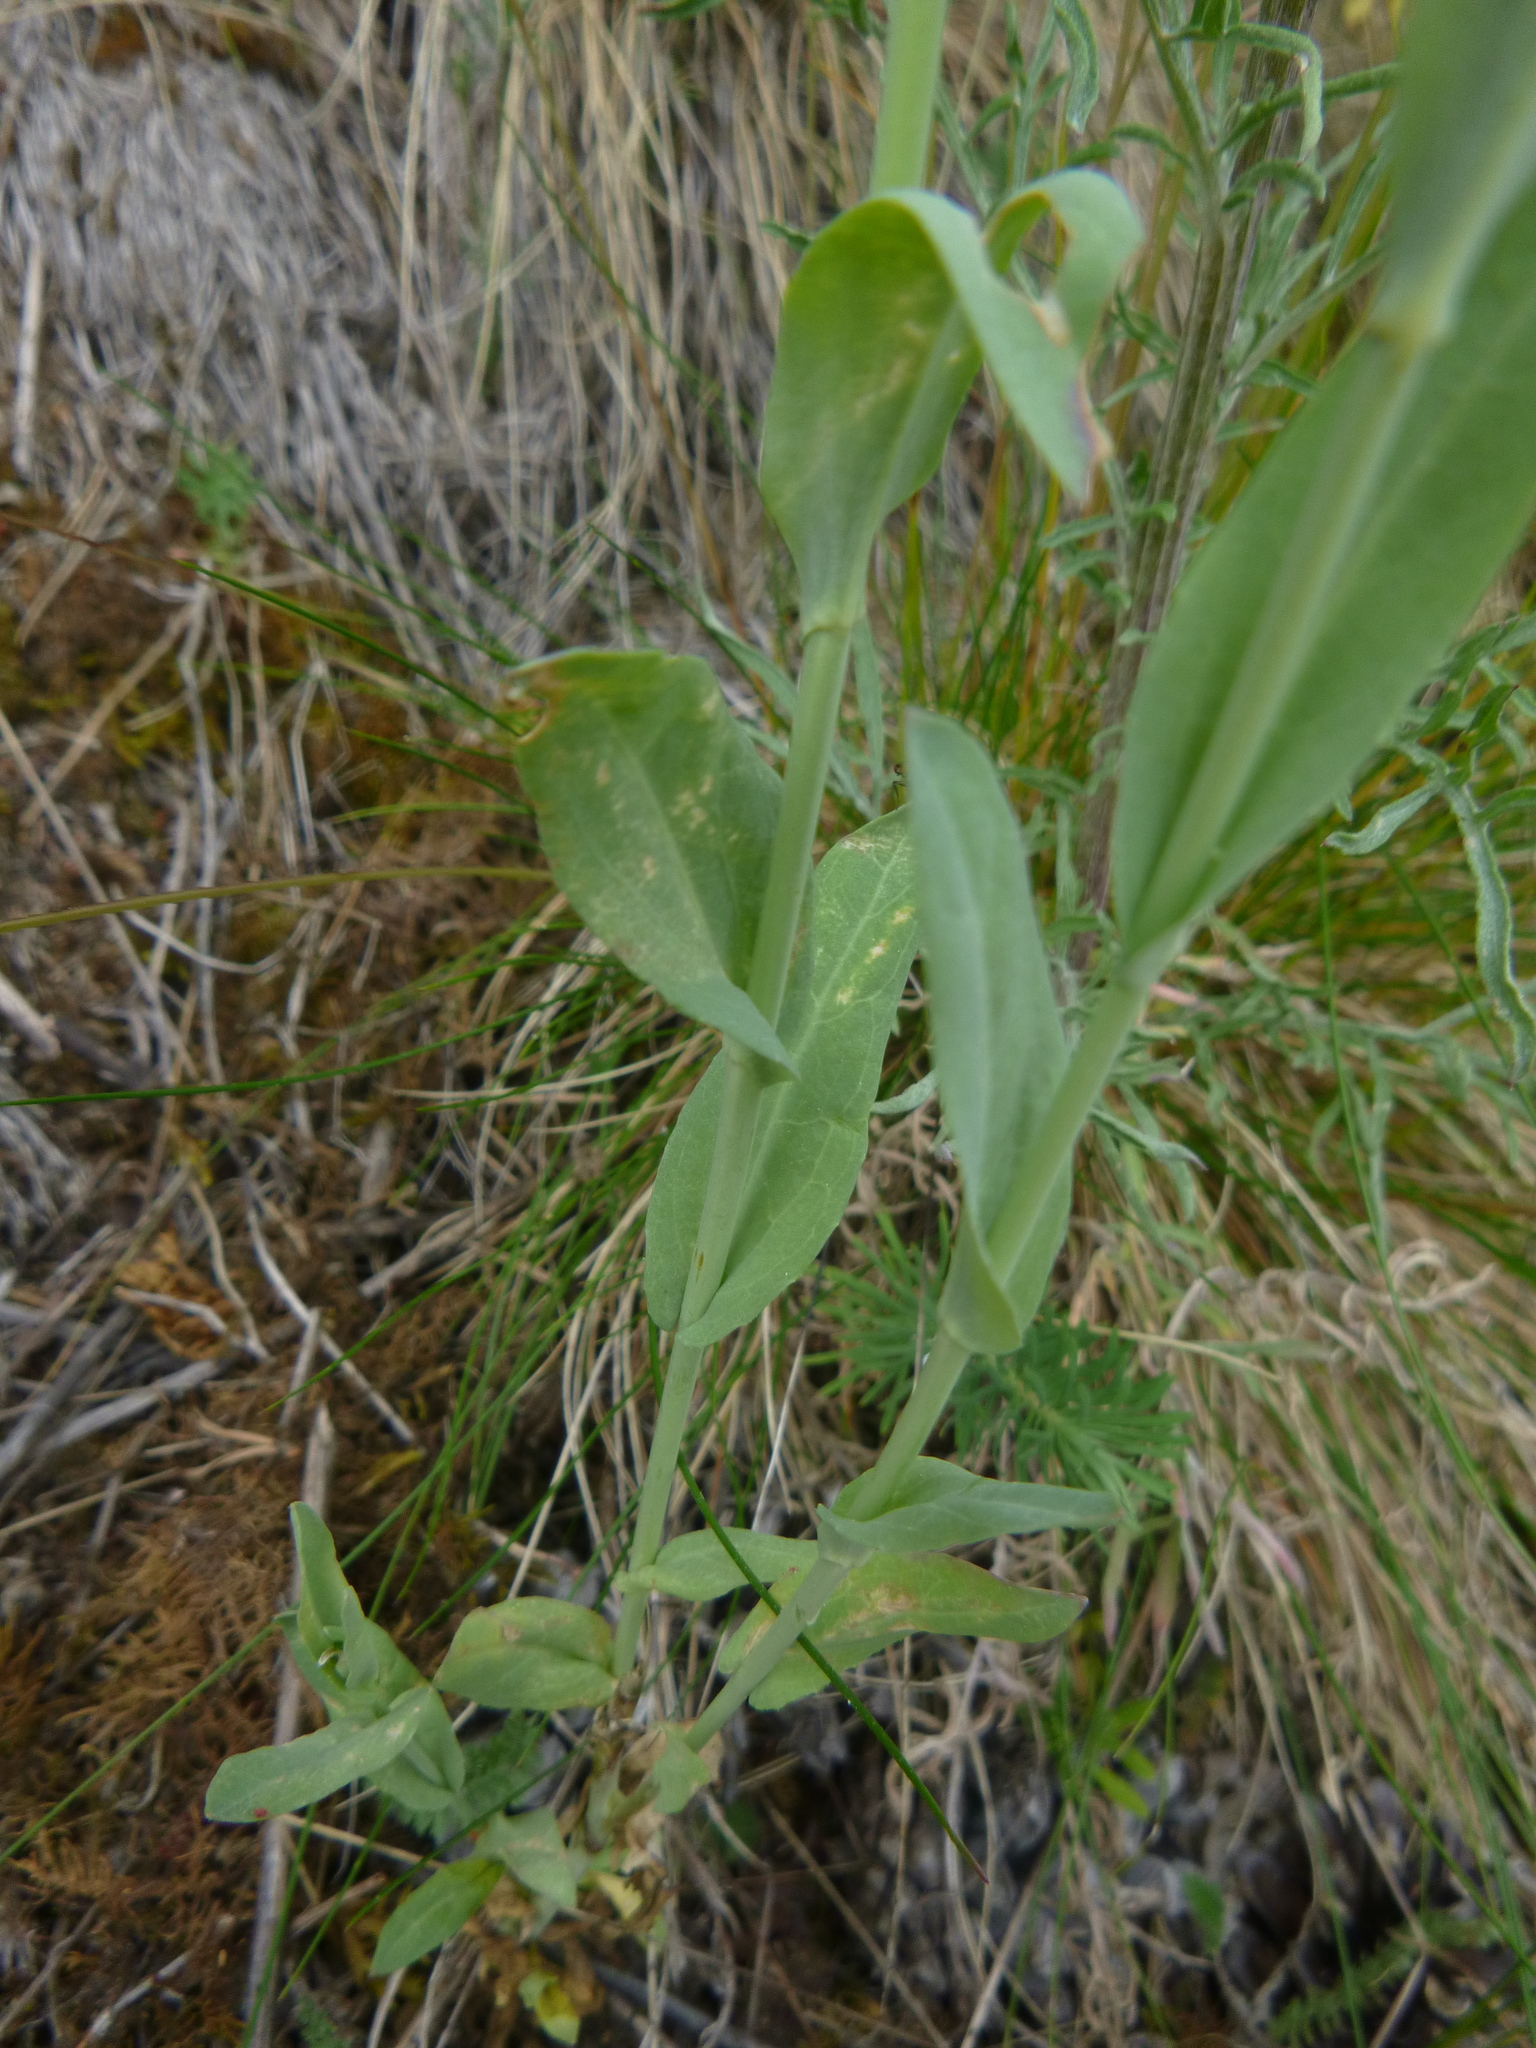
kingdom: Plantae
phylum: Tracheophyta
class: Magnoliopsida
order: Brassicales
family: Brassicaceae
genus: Turritis
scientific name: Turritis glabra
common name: Tower rockcress
